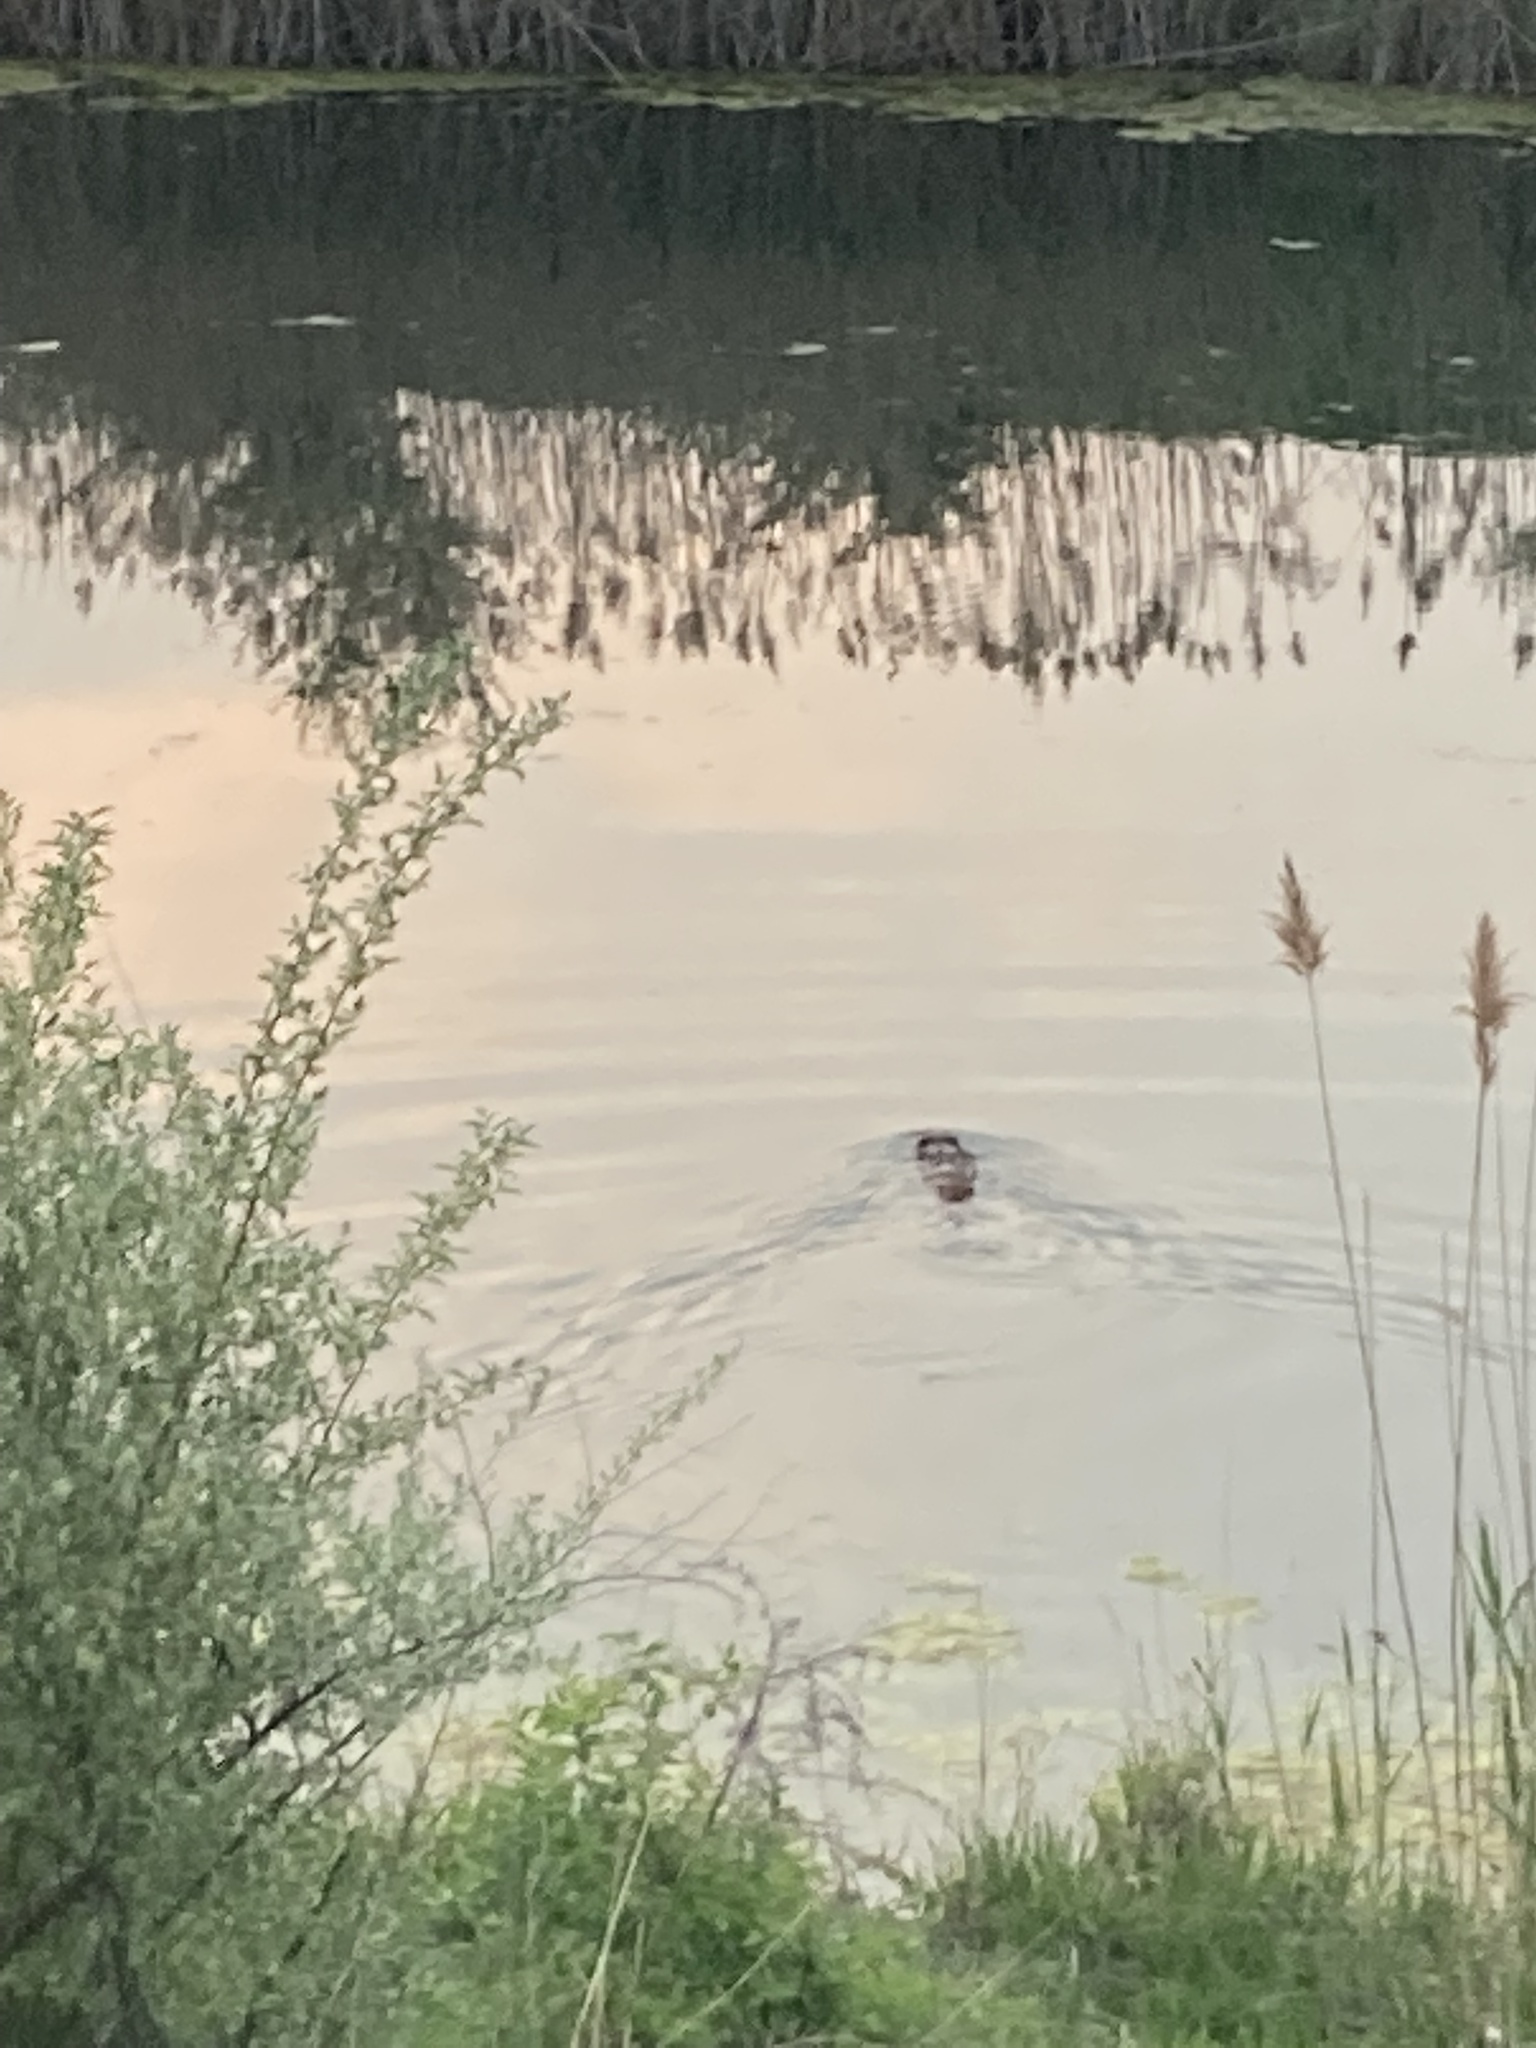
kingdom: Animalia
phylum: Chordata
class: Mammalia
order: Rodentia
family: Castoridae
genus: Castor
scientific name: Castor canadensis
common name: American beaver
